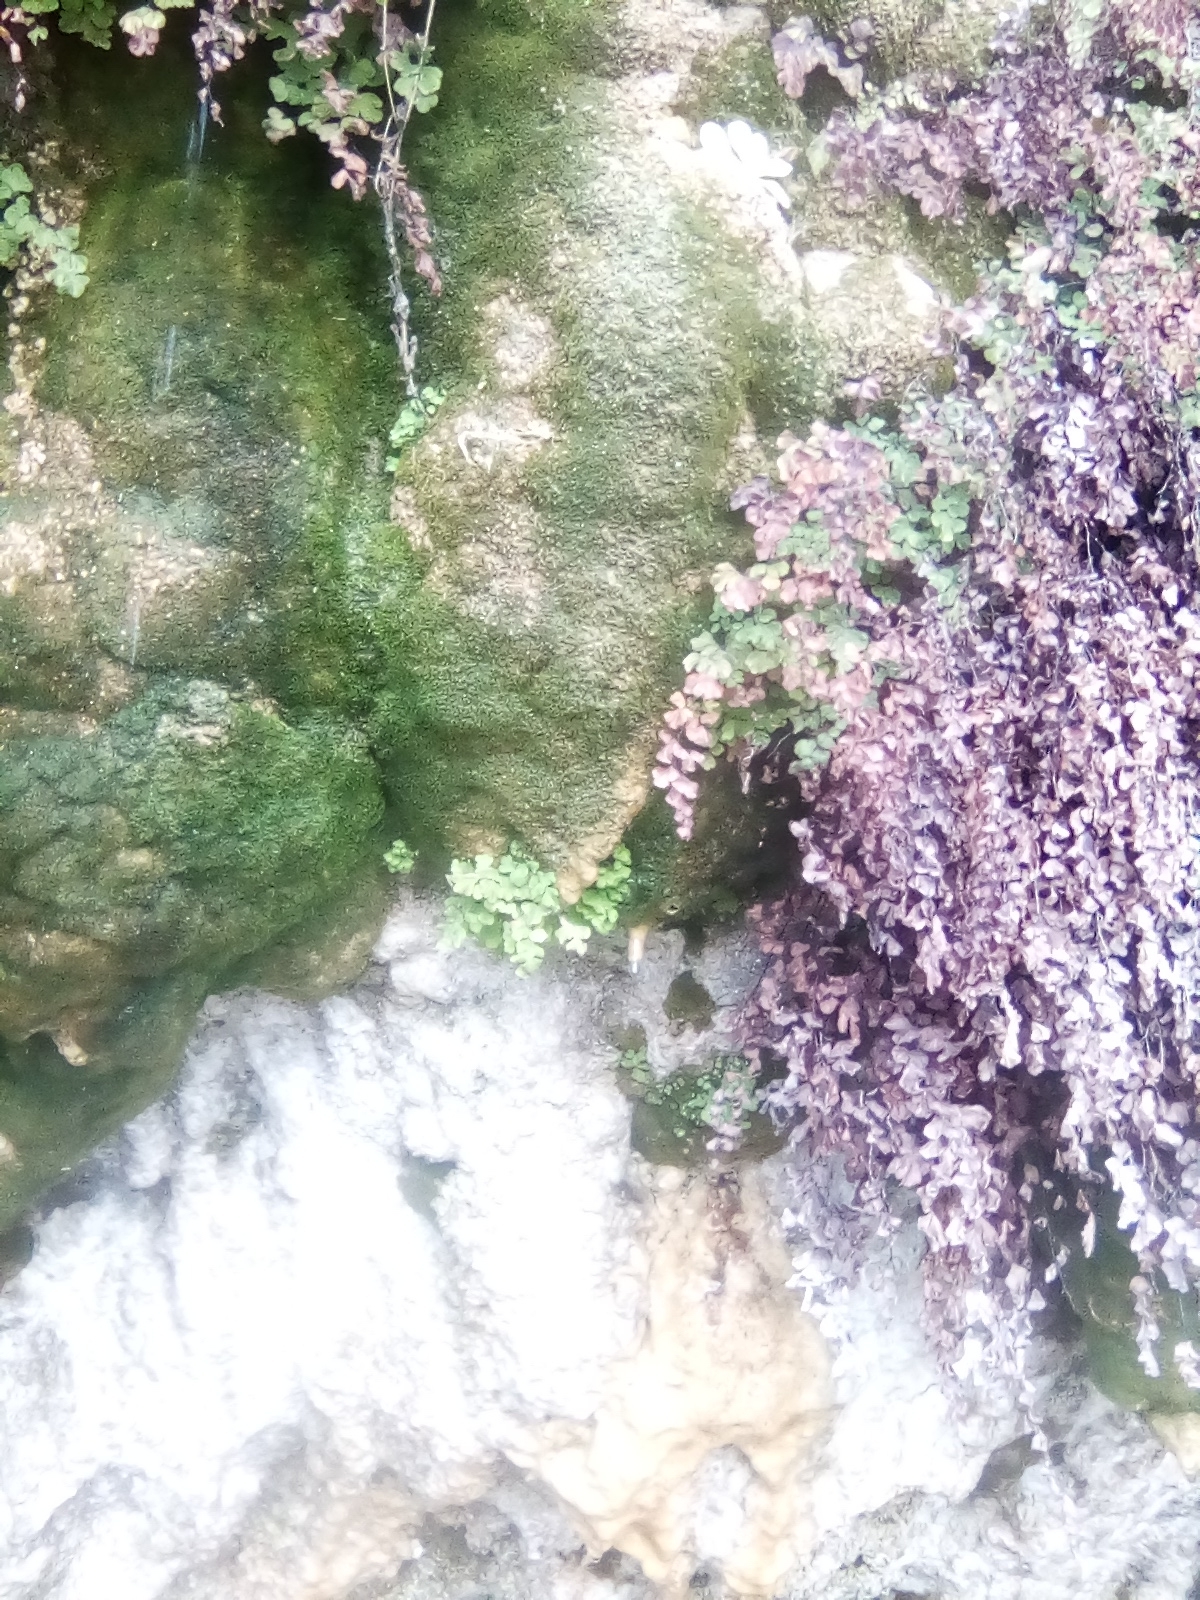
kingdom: Plantae
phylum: Tracheophyta
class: Polypodiopsida
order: Polypodiales
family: Pteridaceae
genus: Adiantum
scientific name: Adiantum capillus-veneris
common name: Maidenhair fern
